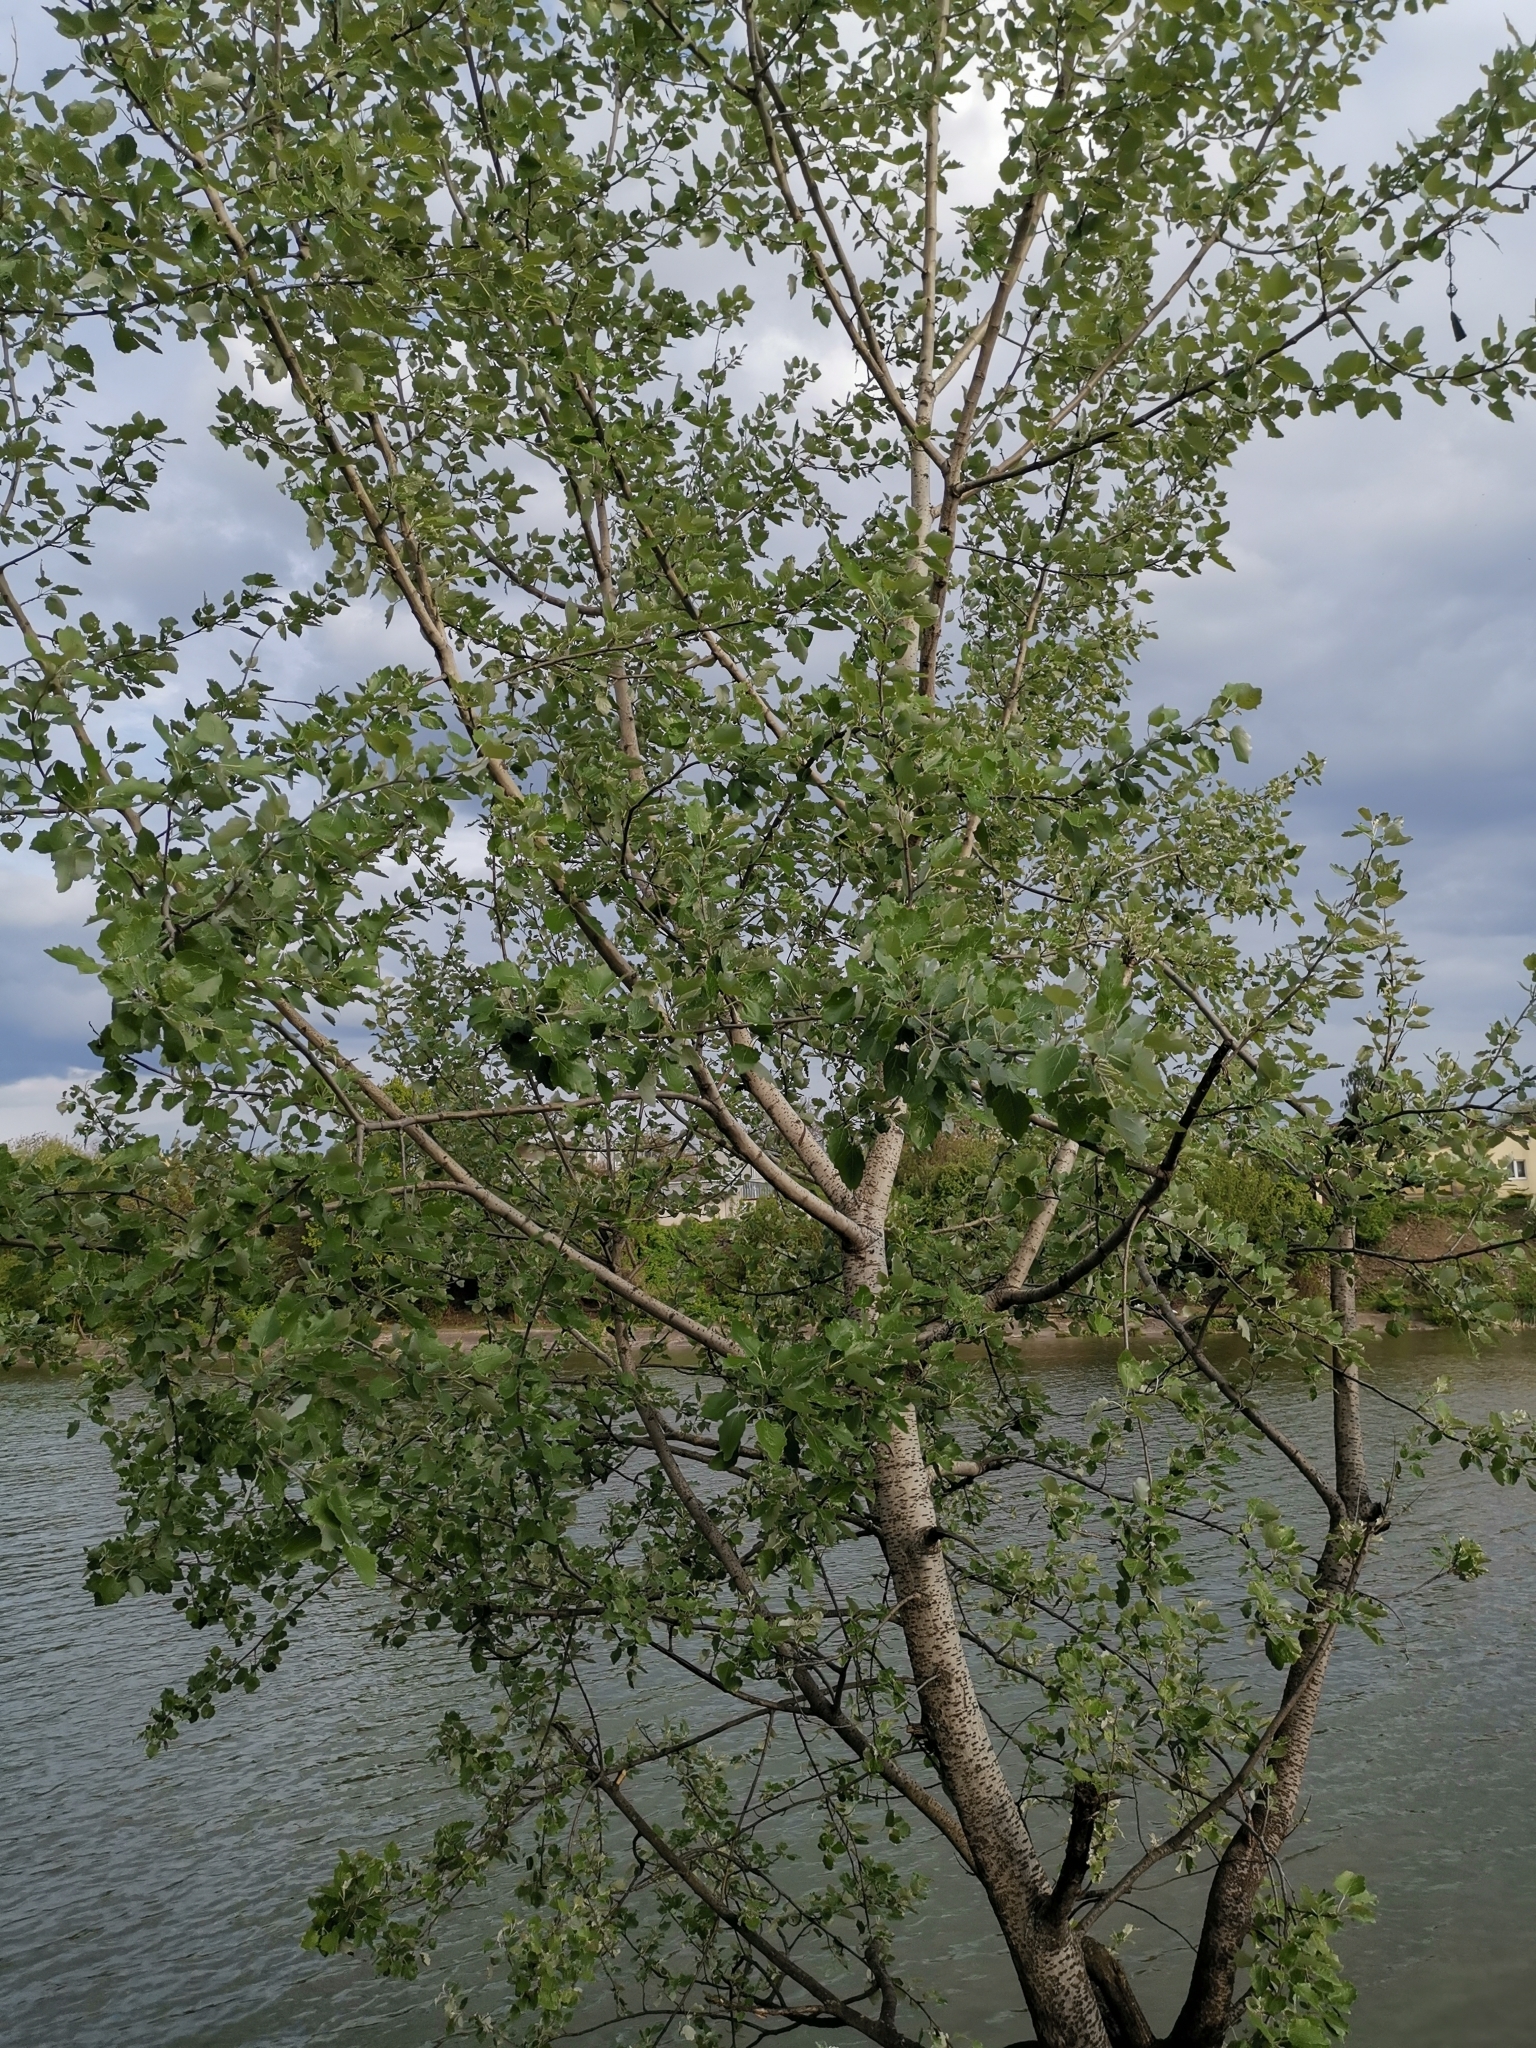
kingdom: Plantae
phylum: Tracheophyta
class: Magnoliopsida
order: Malpighiales
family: Salicaceae
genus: Populus
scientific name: Populus tremula
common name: European aspen
